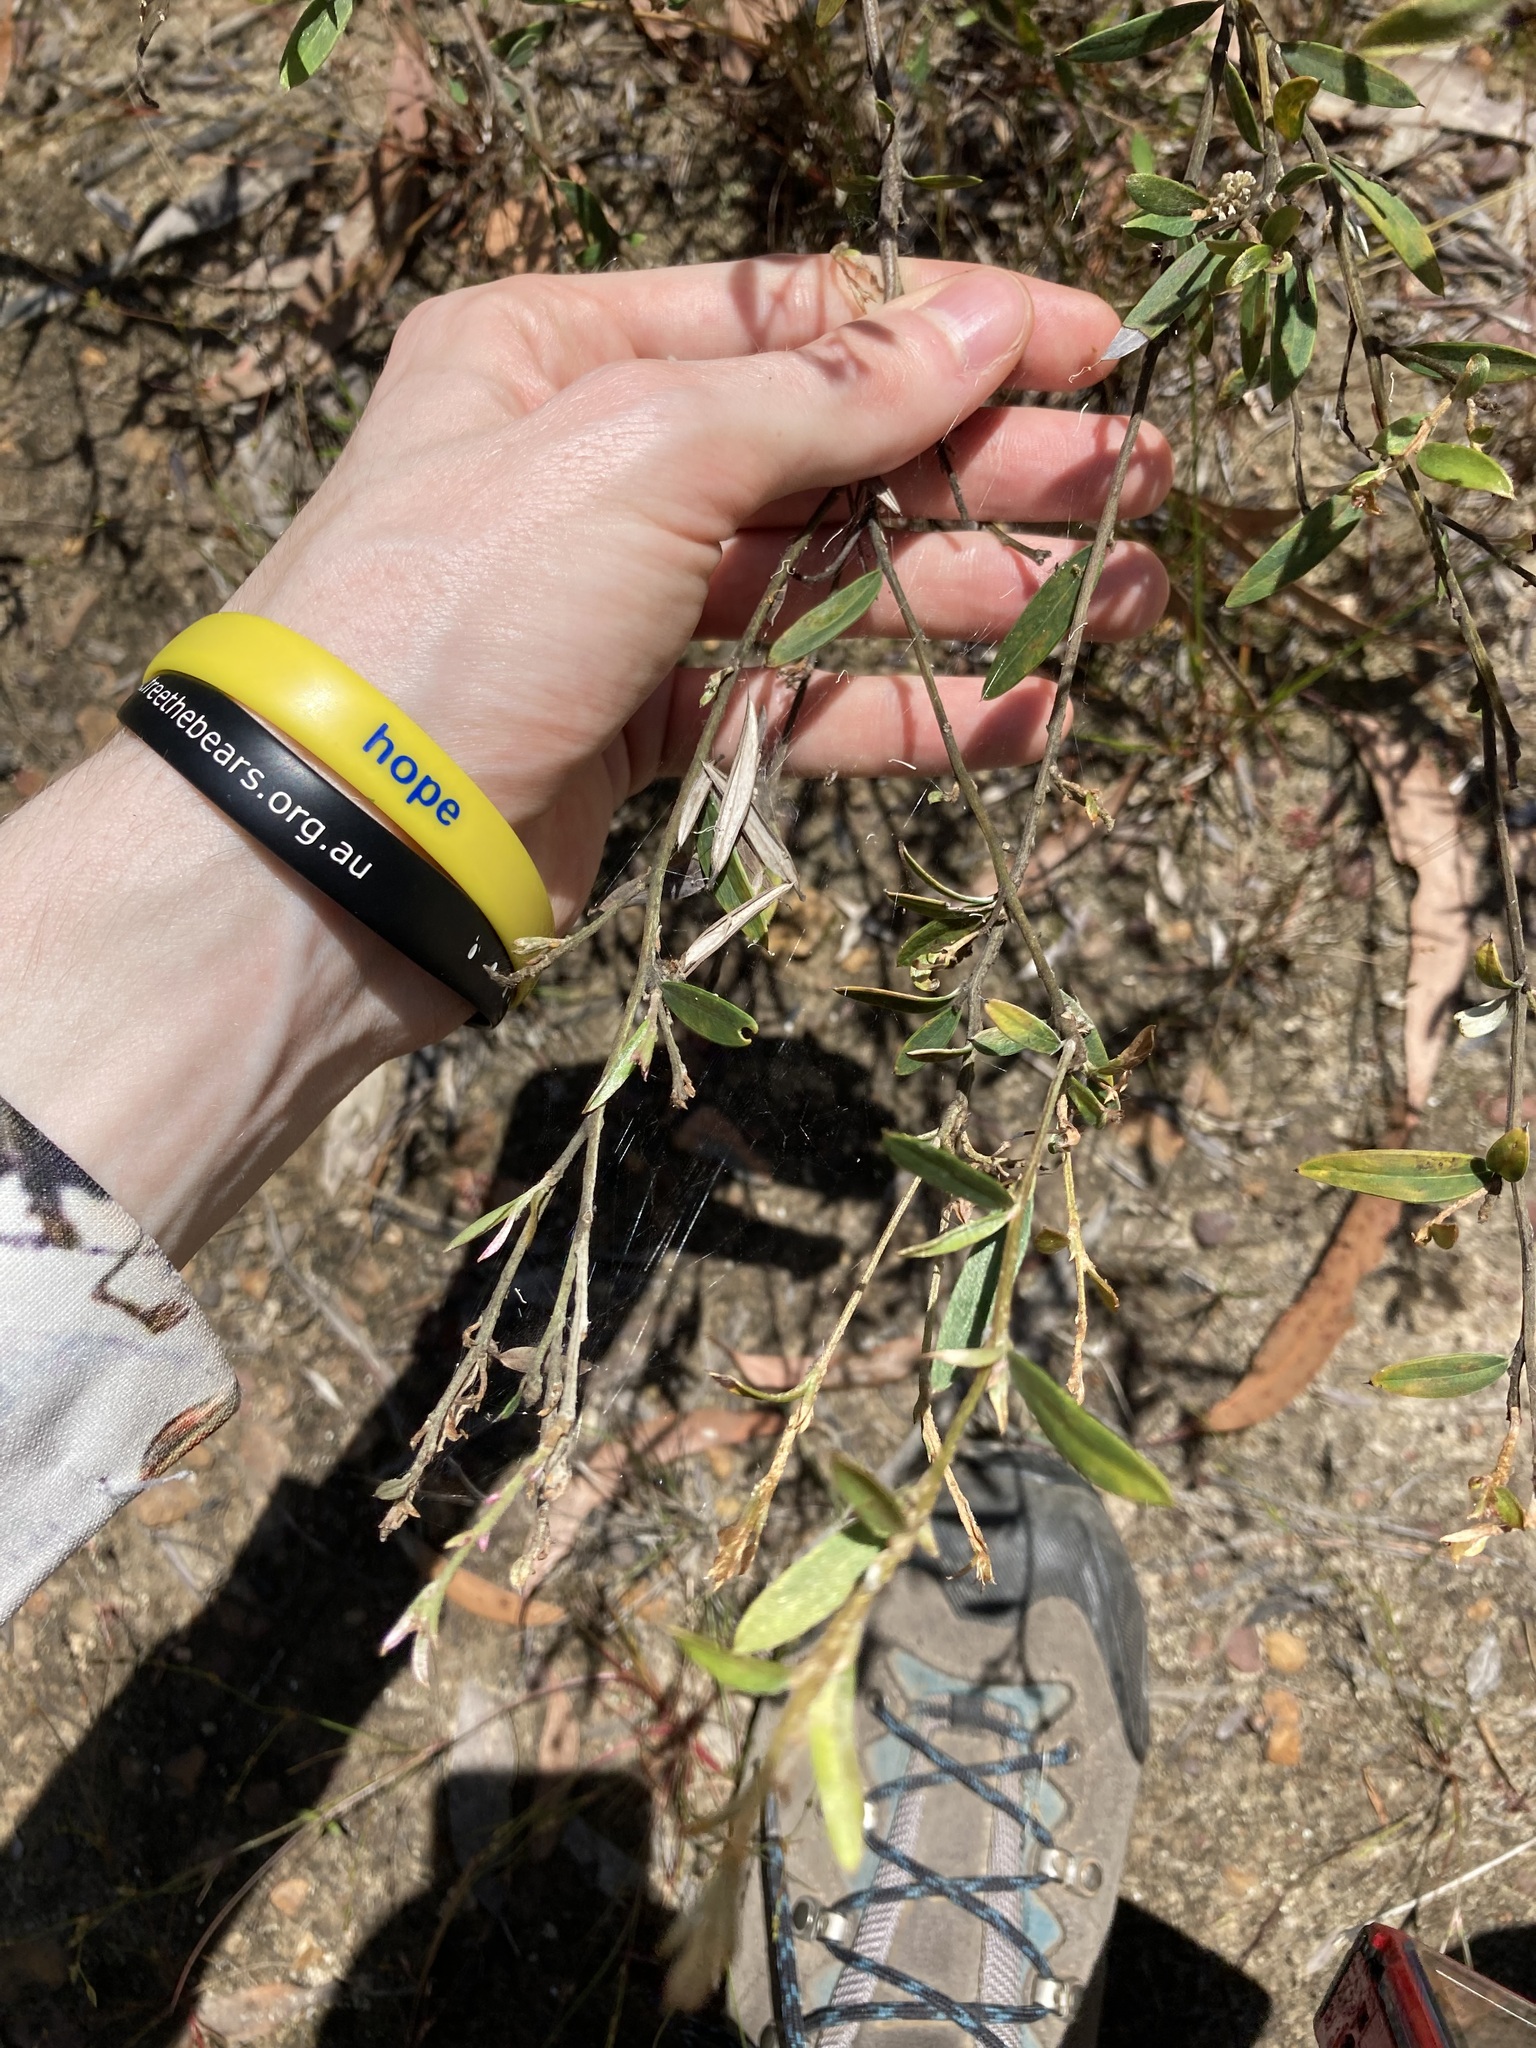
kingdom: Plantae
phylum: Tracheophyta
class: Magnoliopsida
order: Proteales
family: Proteaceae
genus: Grevillea
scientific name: Grevillea sericea
